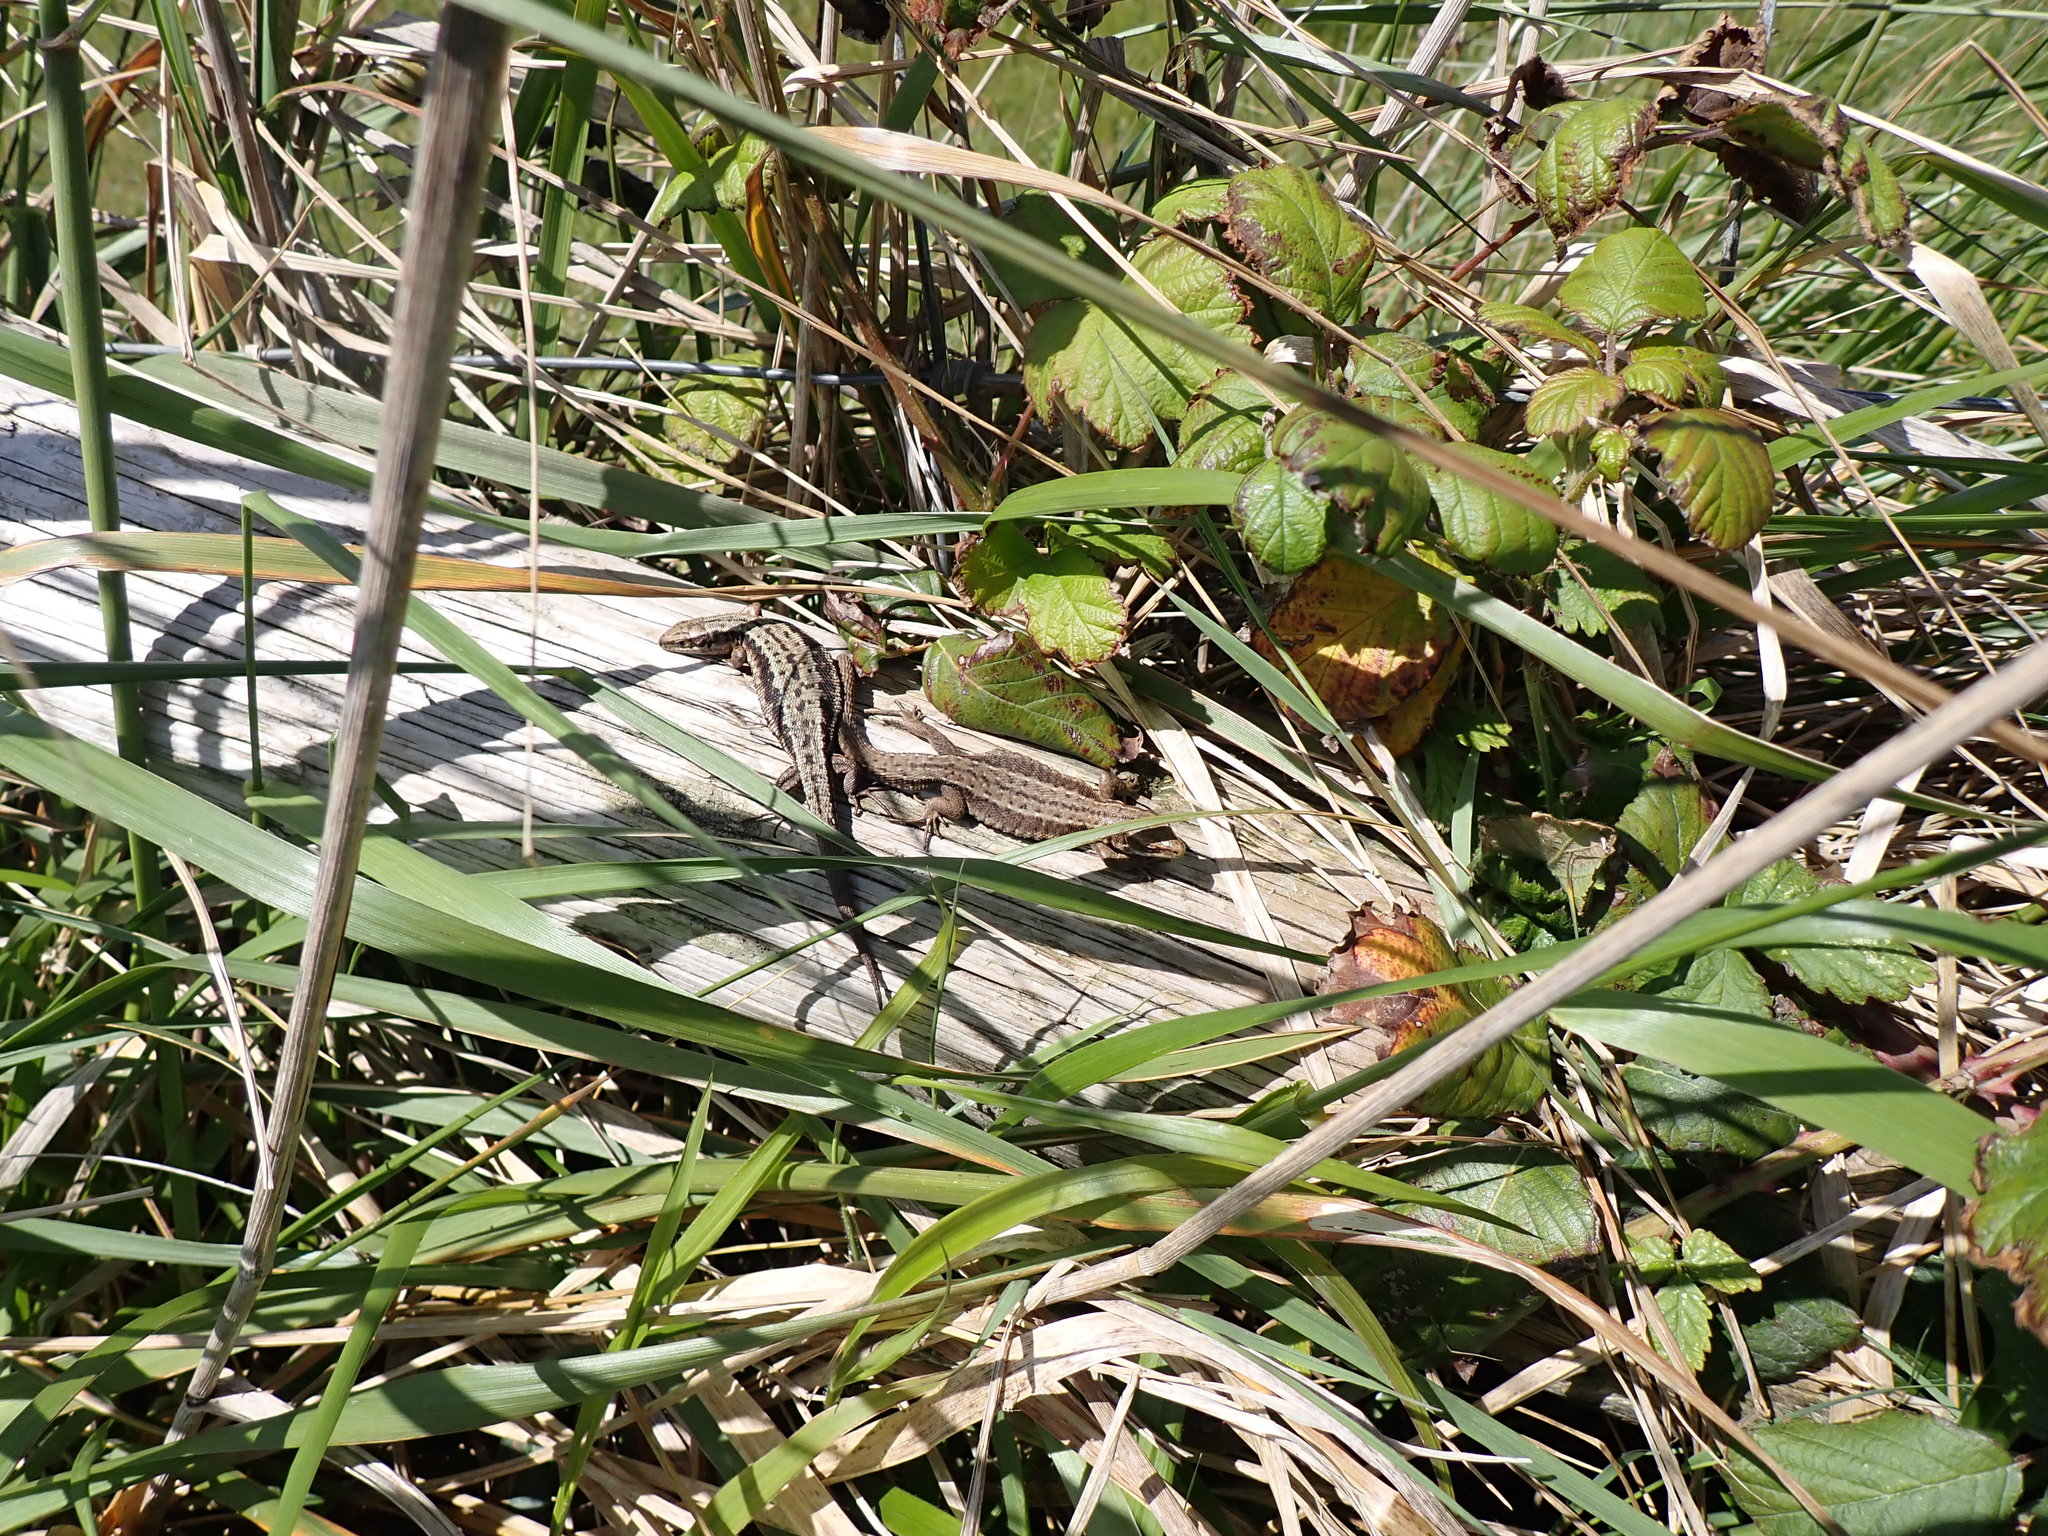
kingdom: Animalia
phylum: Chordata
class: Squamata
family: Lacertidae
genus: Zootoca
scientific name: Zootoca vivipara
